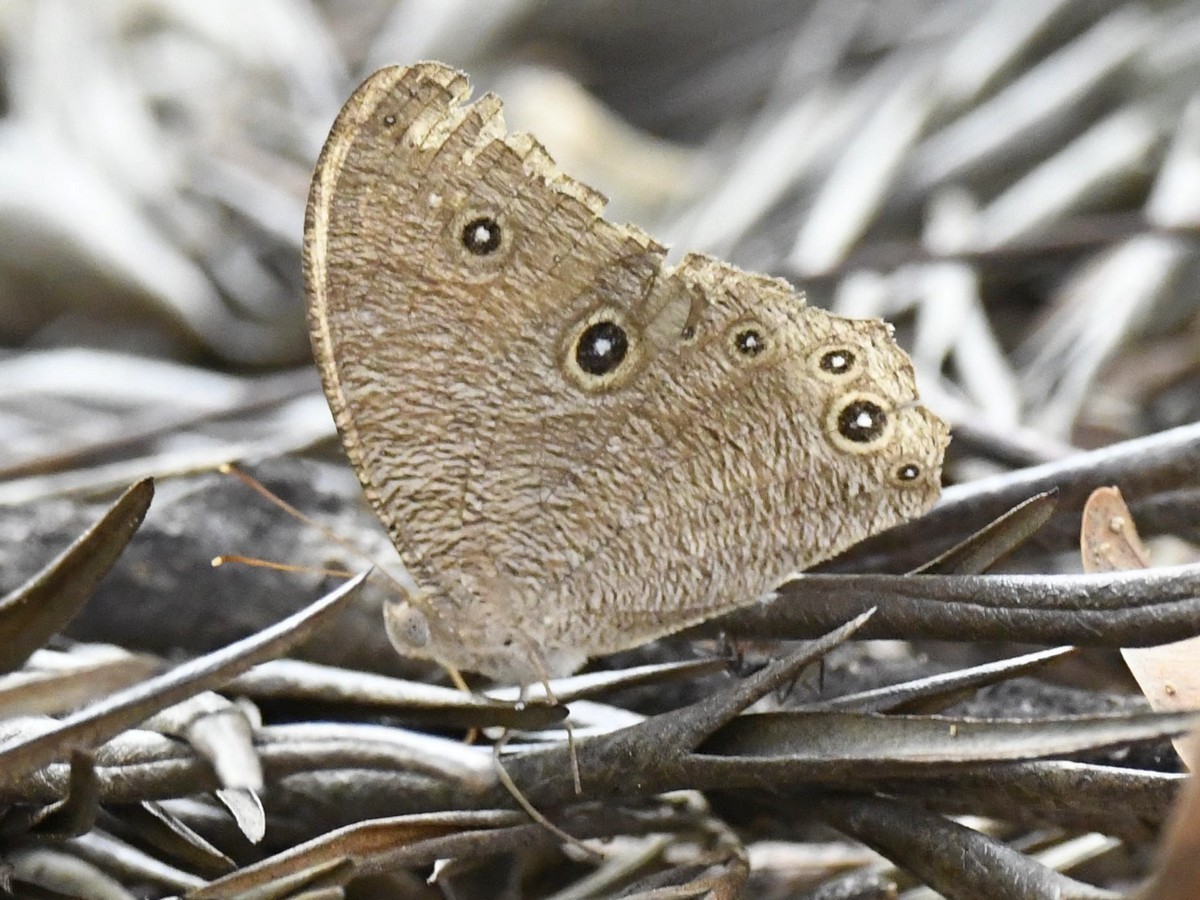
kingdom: Animalia
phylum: Arthropoda
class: Insecta
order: Lepidoptera
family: Nymphalidae
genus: Melanitis
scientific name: Melanitis leda
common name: Twilight brown
